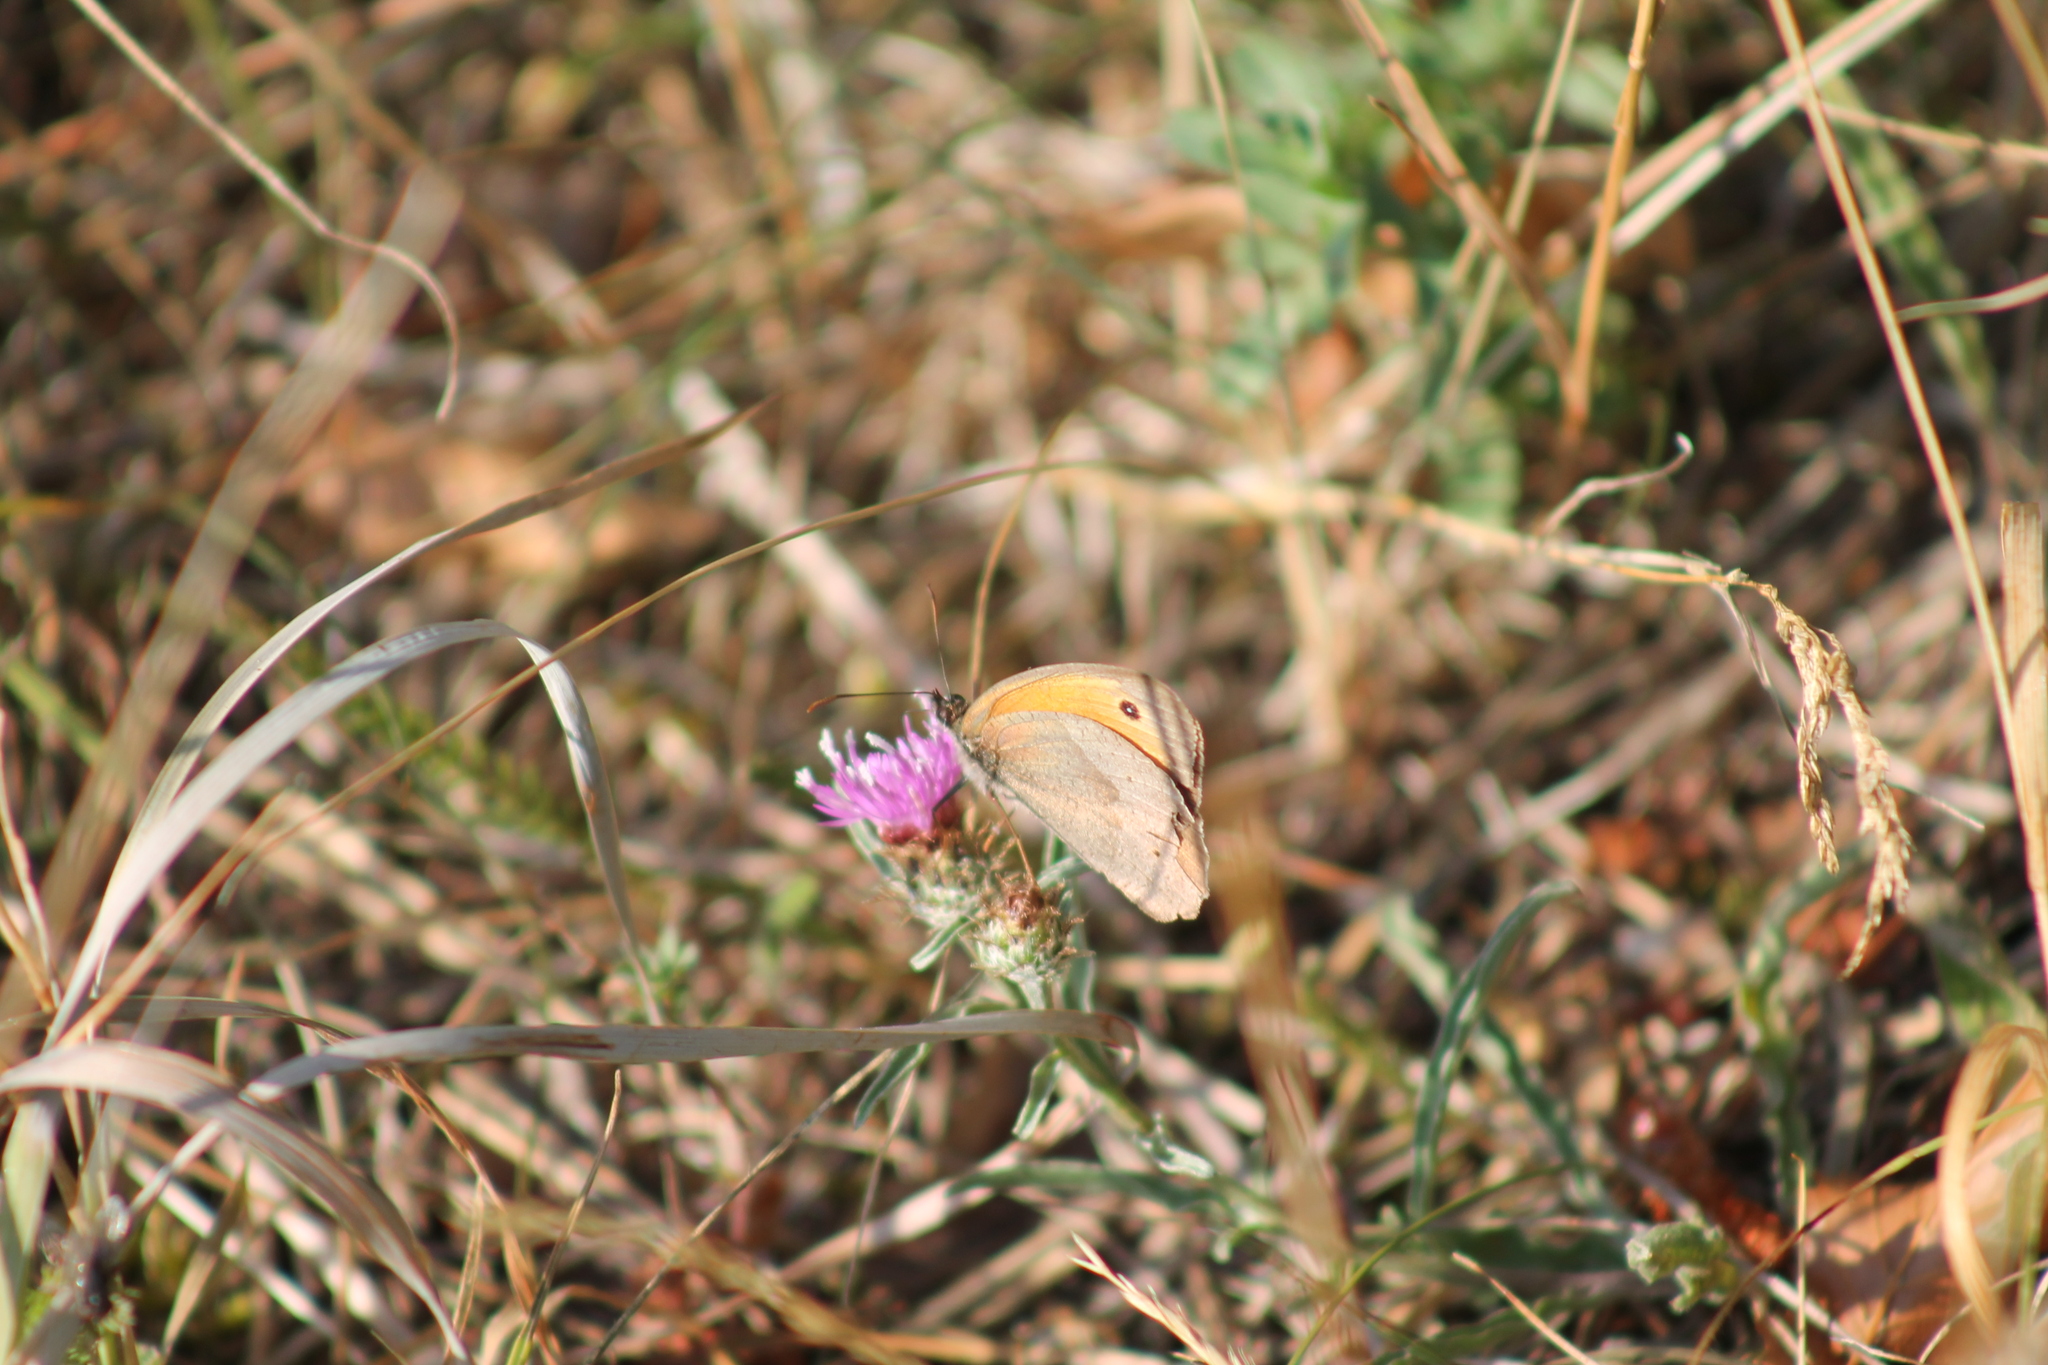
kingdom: Animalia
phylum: Arthropoda
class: Insecta
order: Lepidoptera
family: Nymphalidae
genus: Maniola
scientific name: Maniola jurtina
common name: Meadow brown
